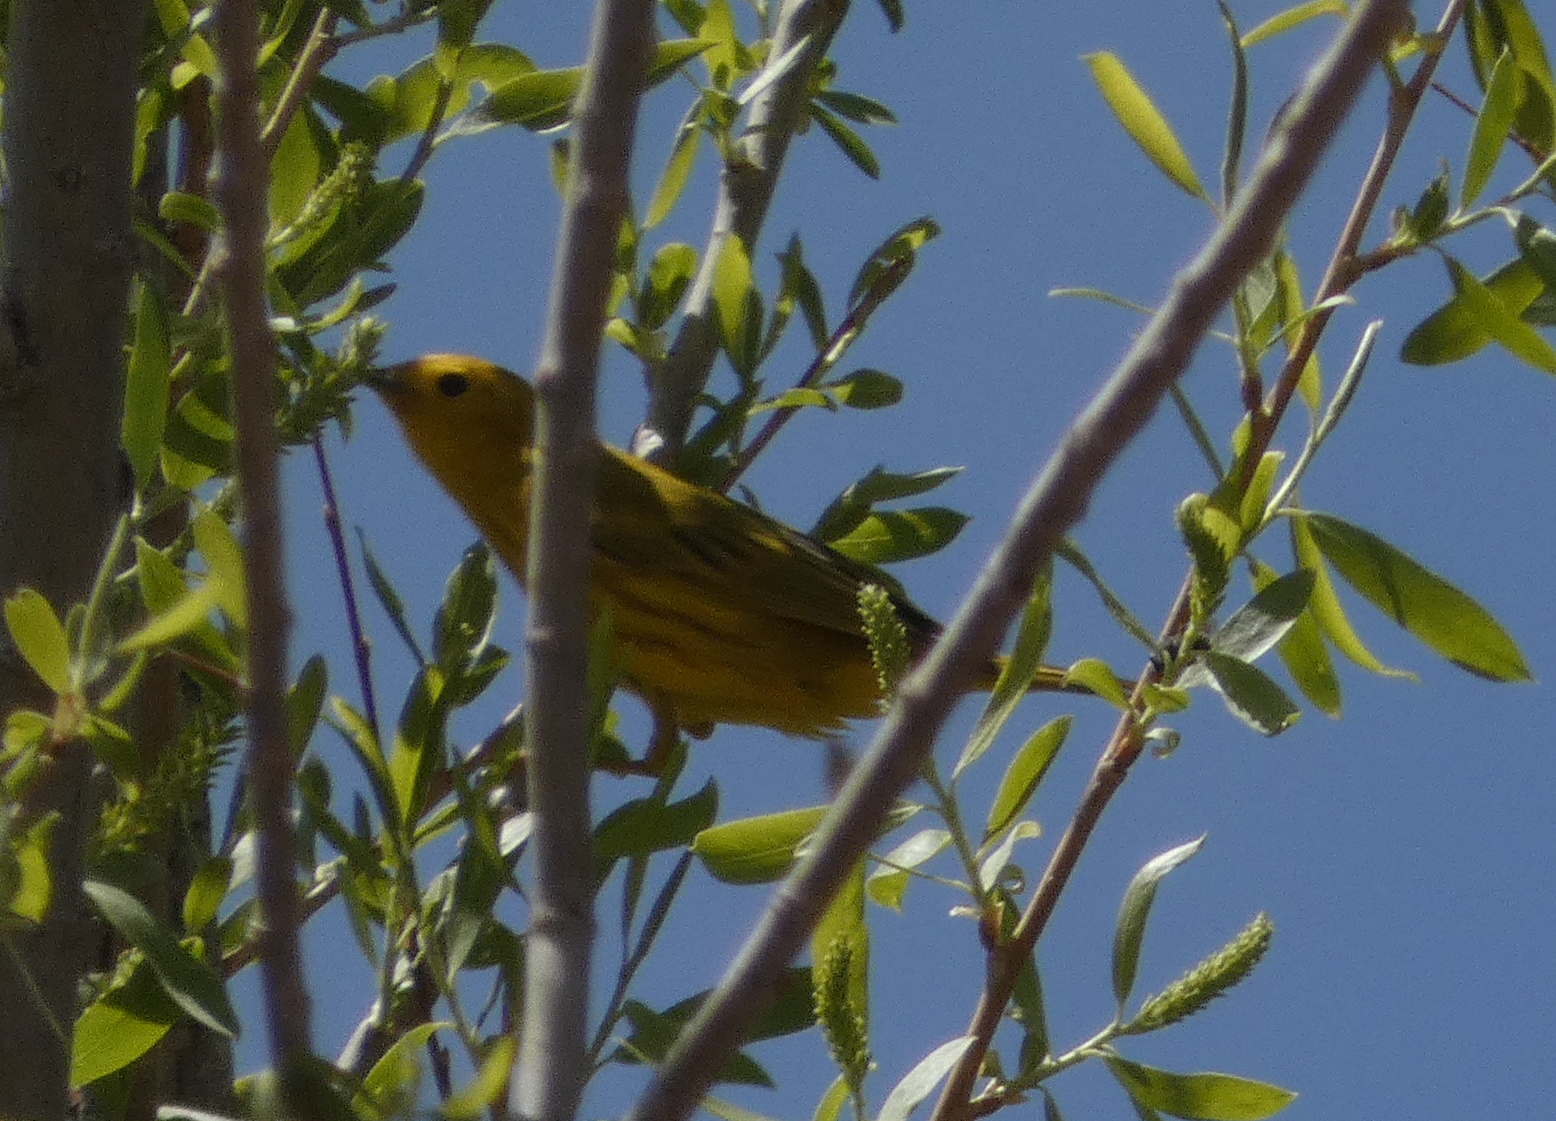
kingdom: Animalia
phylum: Chordata
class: Aves
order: Passeriformes
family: Parulidae
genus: Setophaga
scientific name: Setophaga petechia
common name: Yellow warbler
